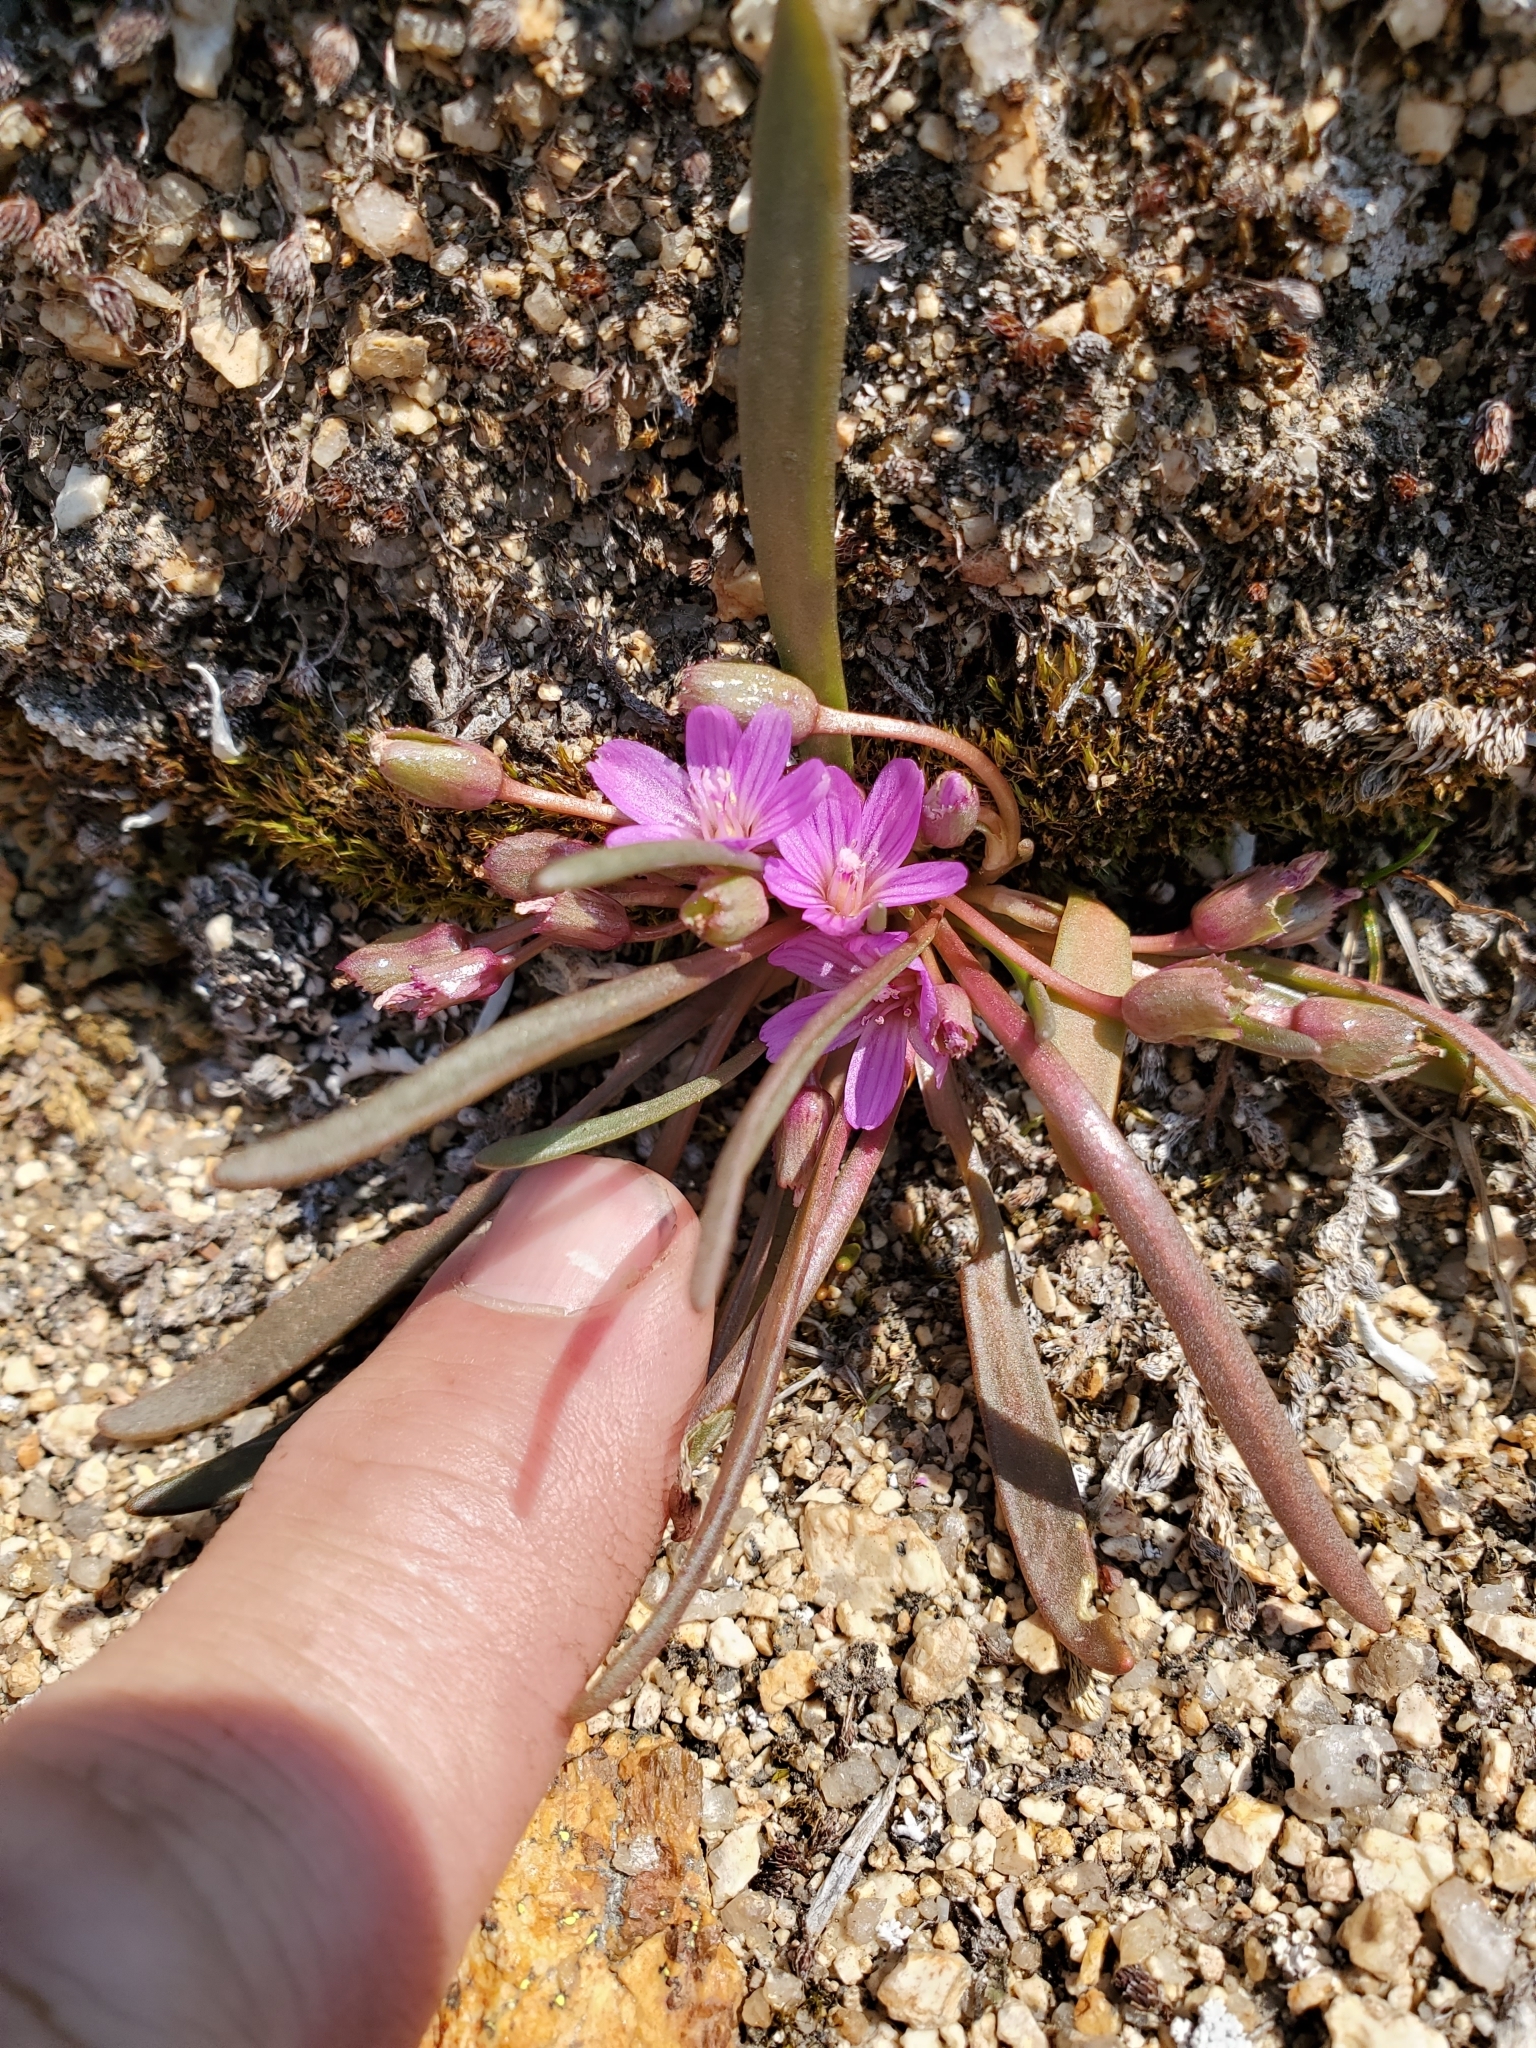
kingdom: Plantae
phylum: Tracheophyta
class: Magnoliopsida
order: Caryophyllales
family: Montiaceae
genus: Lewisia
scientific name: Lewisia pygmaea
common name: Alpine bitterroot
